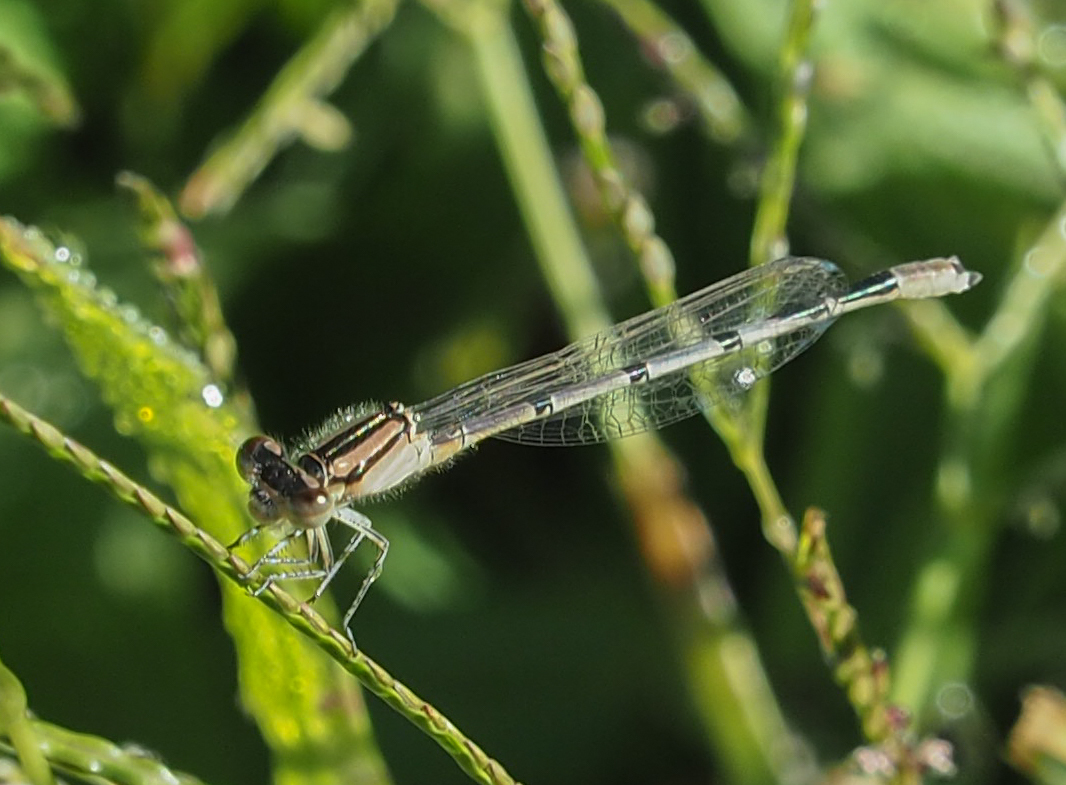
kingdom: Animalia
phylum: Arthropoda
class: Insecta
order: Odonata
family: Coenagrionidae
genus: Enallagma
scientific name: Enallagma civile
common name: Damselfly
